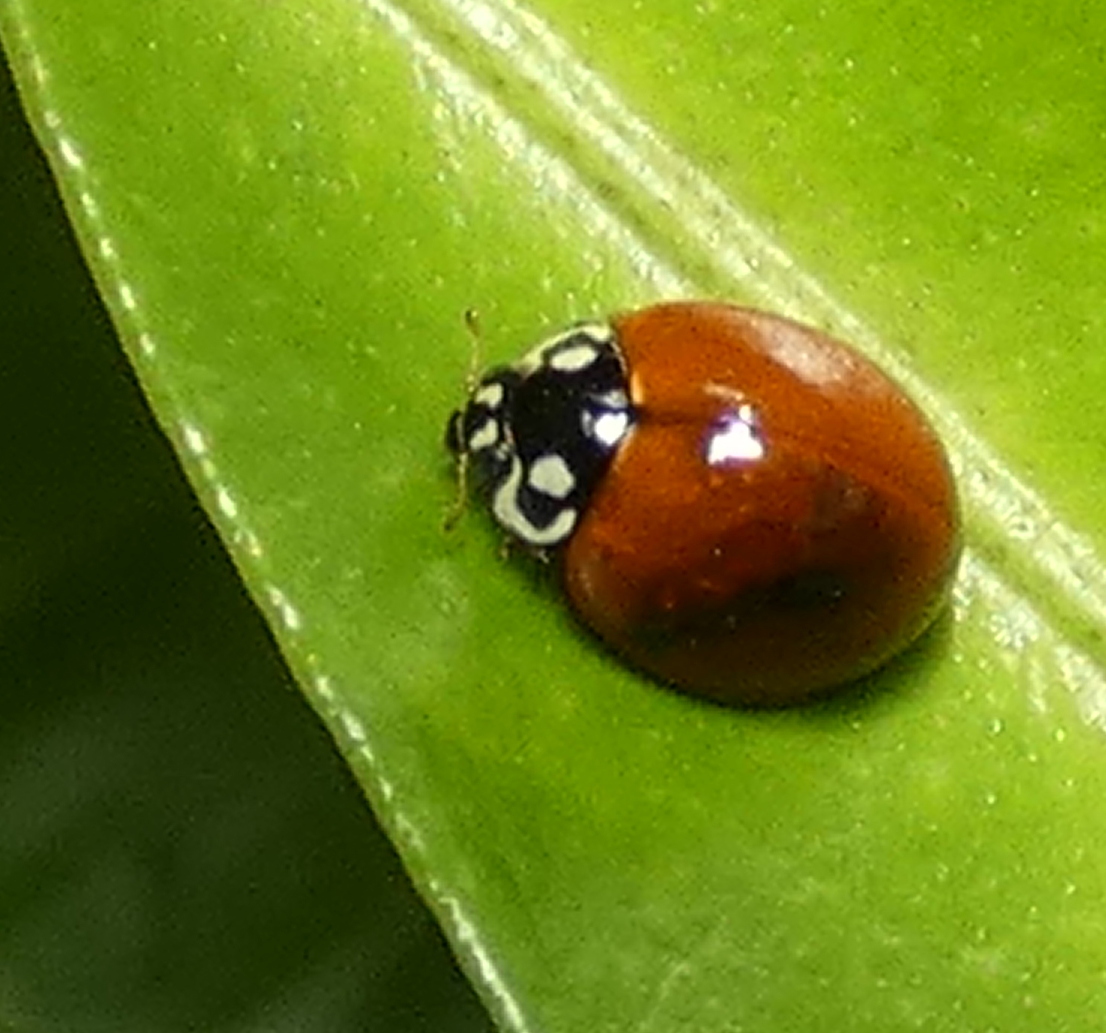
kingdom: Animalia
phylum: Arthropoda
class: Insecta
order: Coleoptera
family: Coccinellidae
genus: Cycloneda
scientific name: Cycloneda sanguinea
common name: Ladybird beetle
